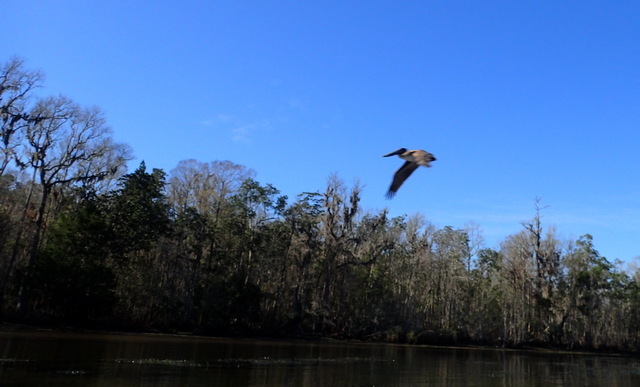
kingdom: Animalia
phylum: Chordata
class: Aves
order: Pelecaniformes
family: Pelecanidae
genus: Pelecanus
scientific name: Pelecanus occidentalis
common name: Brown pelican
